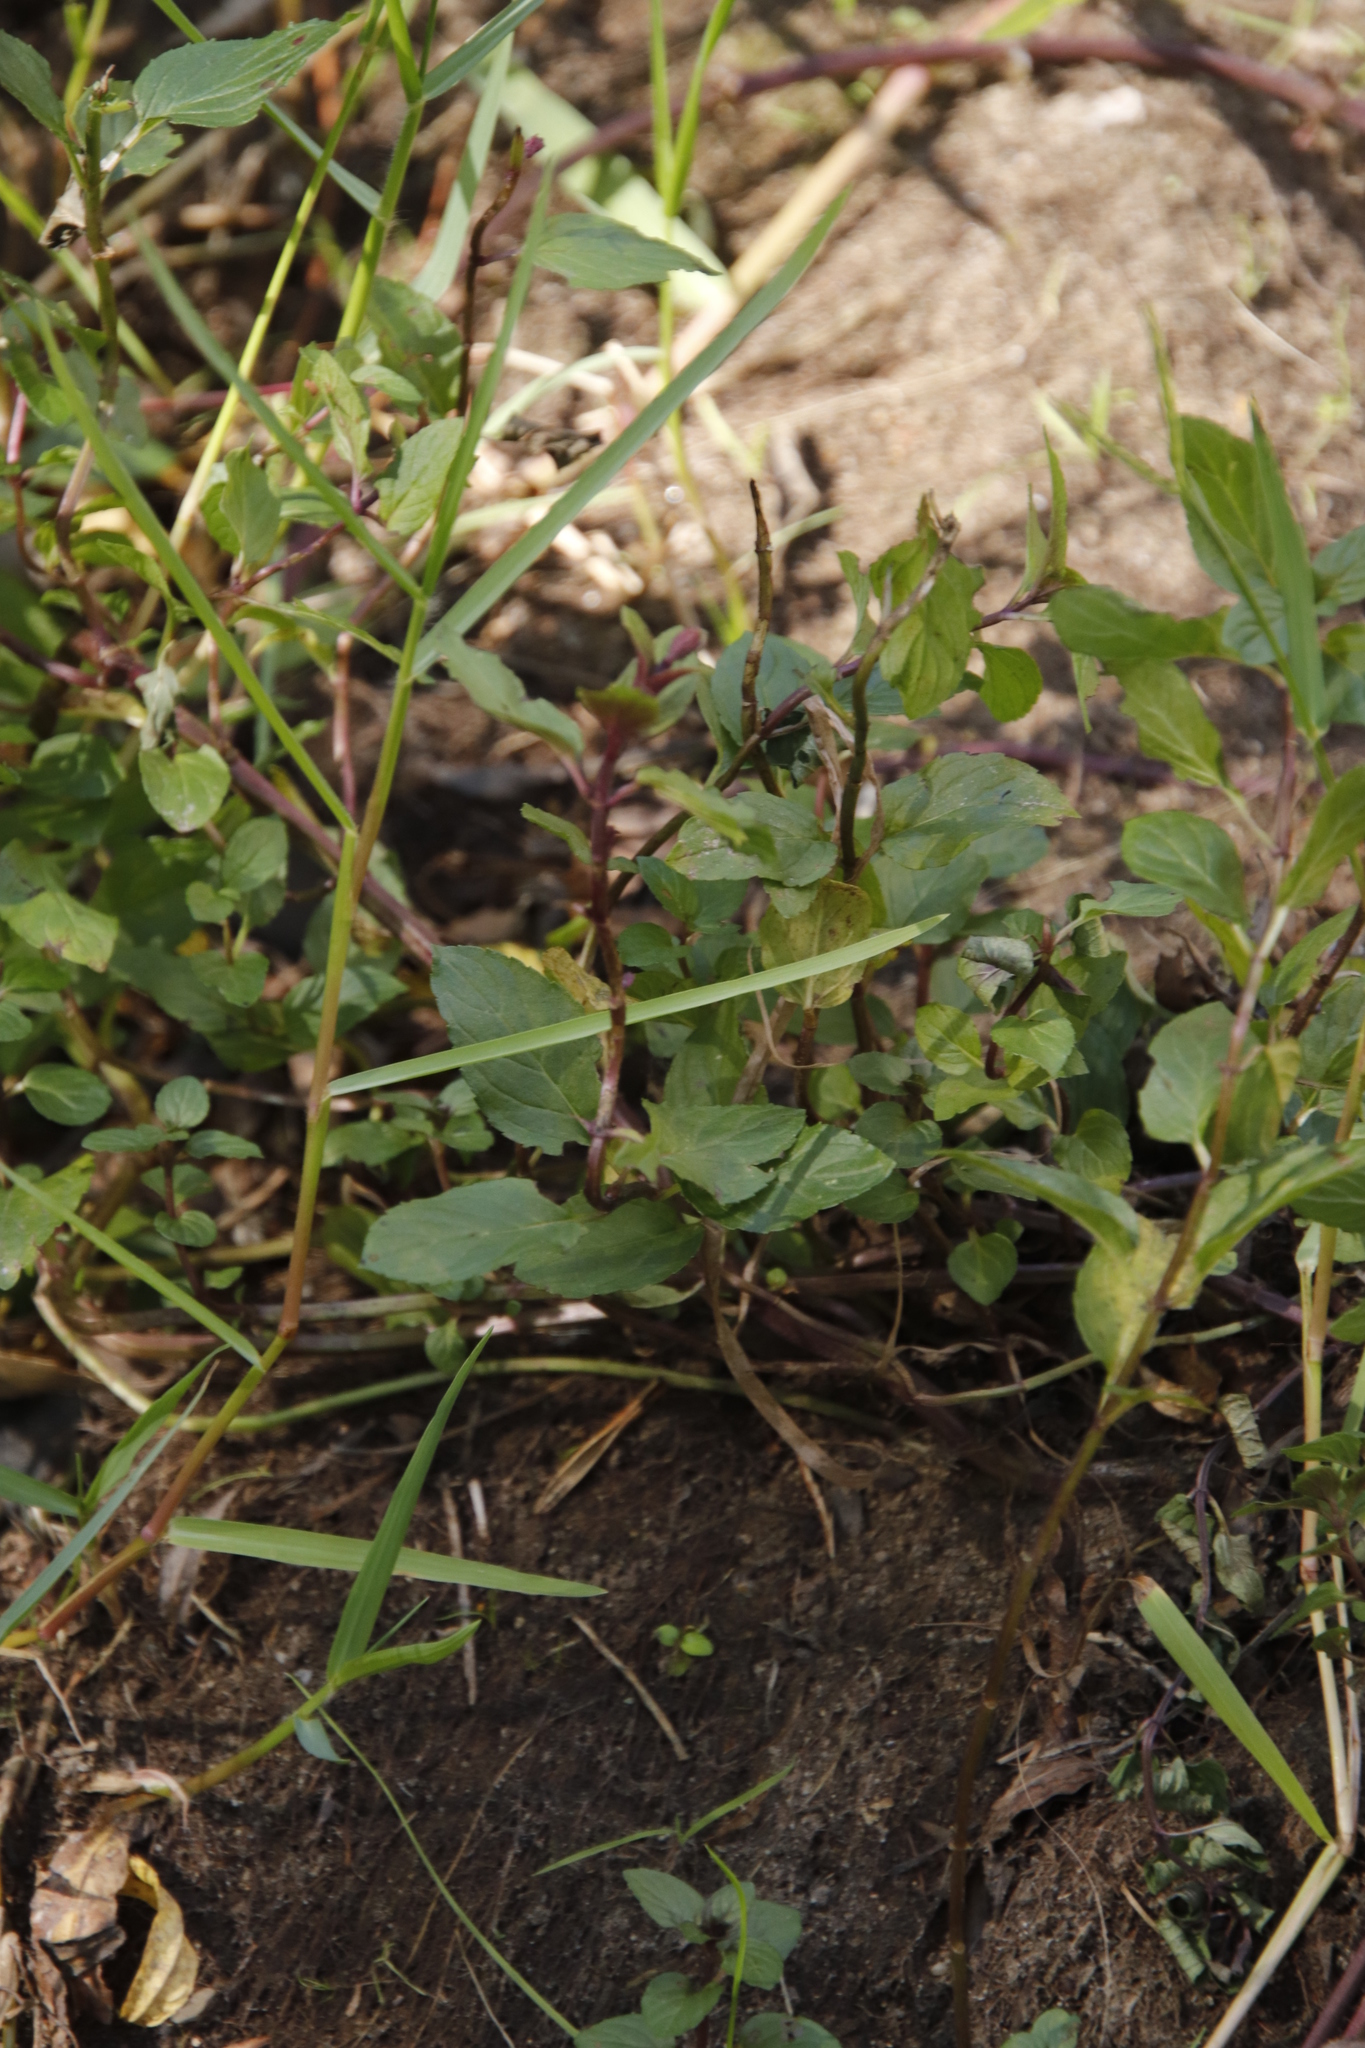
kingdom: Plantae
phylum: Tracheophyta
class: Magnoliopsida
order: Caryophyllales
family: Polygonaceae
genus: Persicaria
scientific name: Persicaria capitata
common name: Pinkhead smartweed
